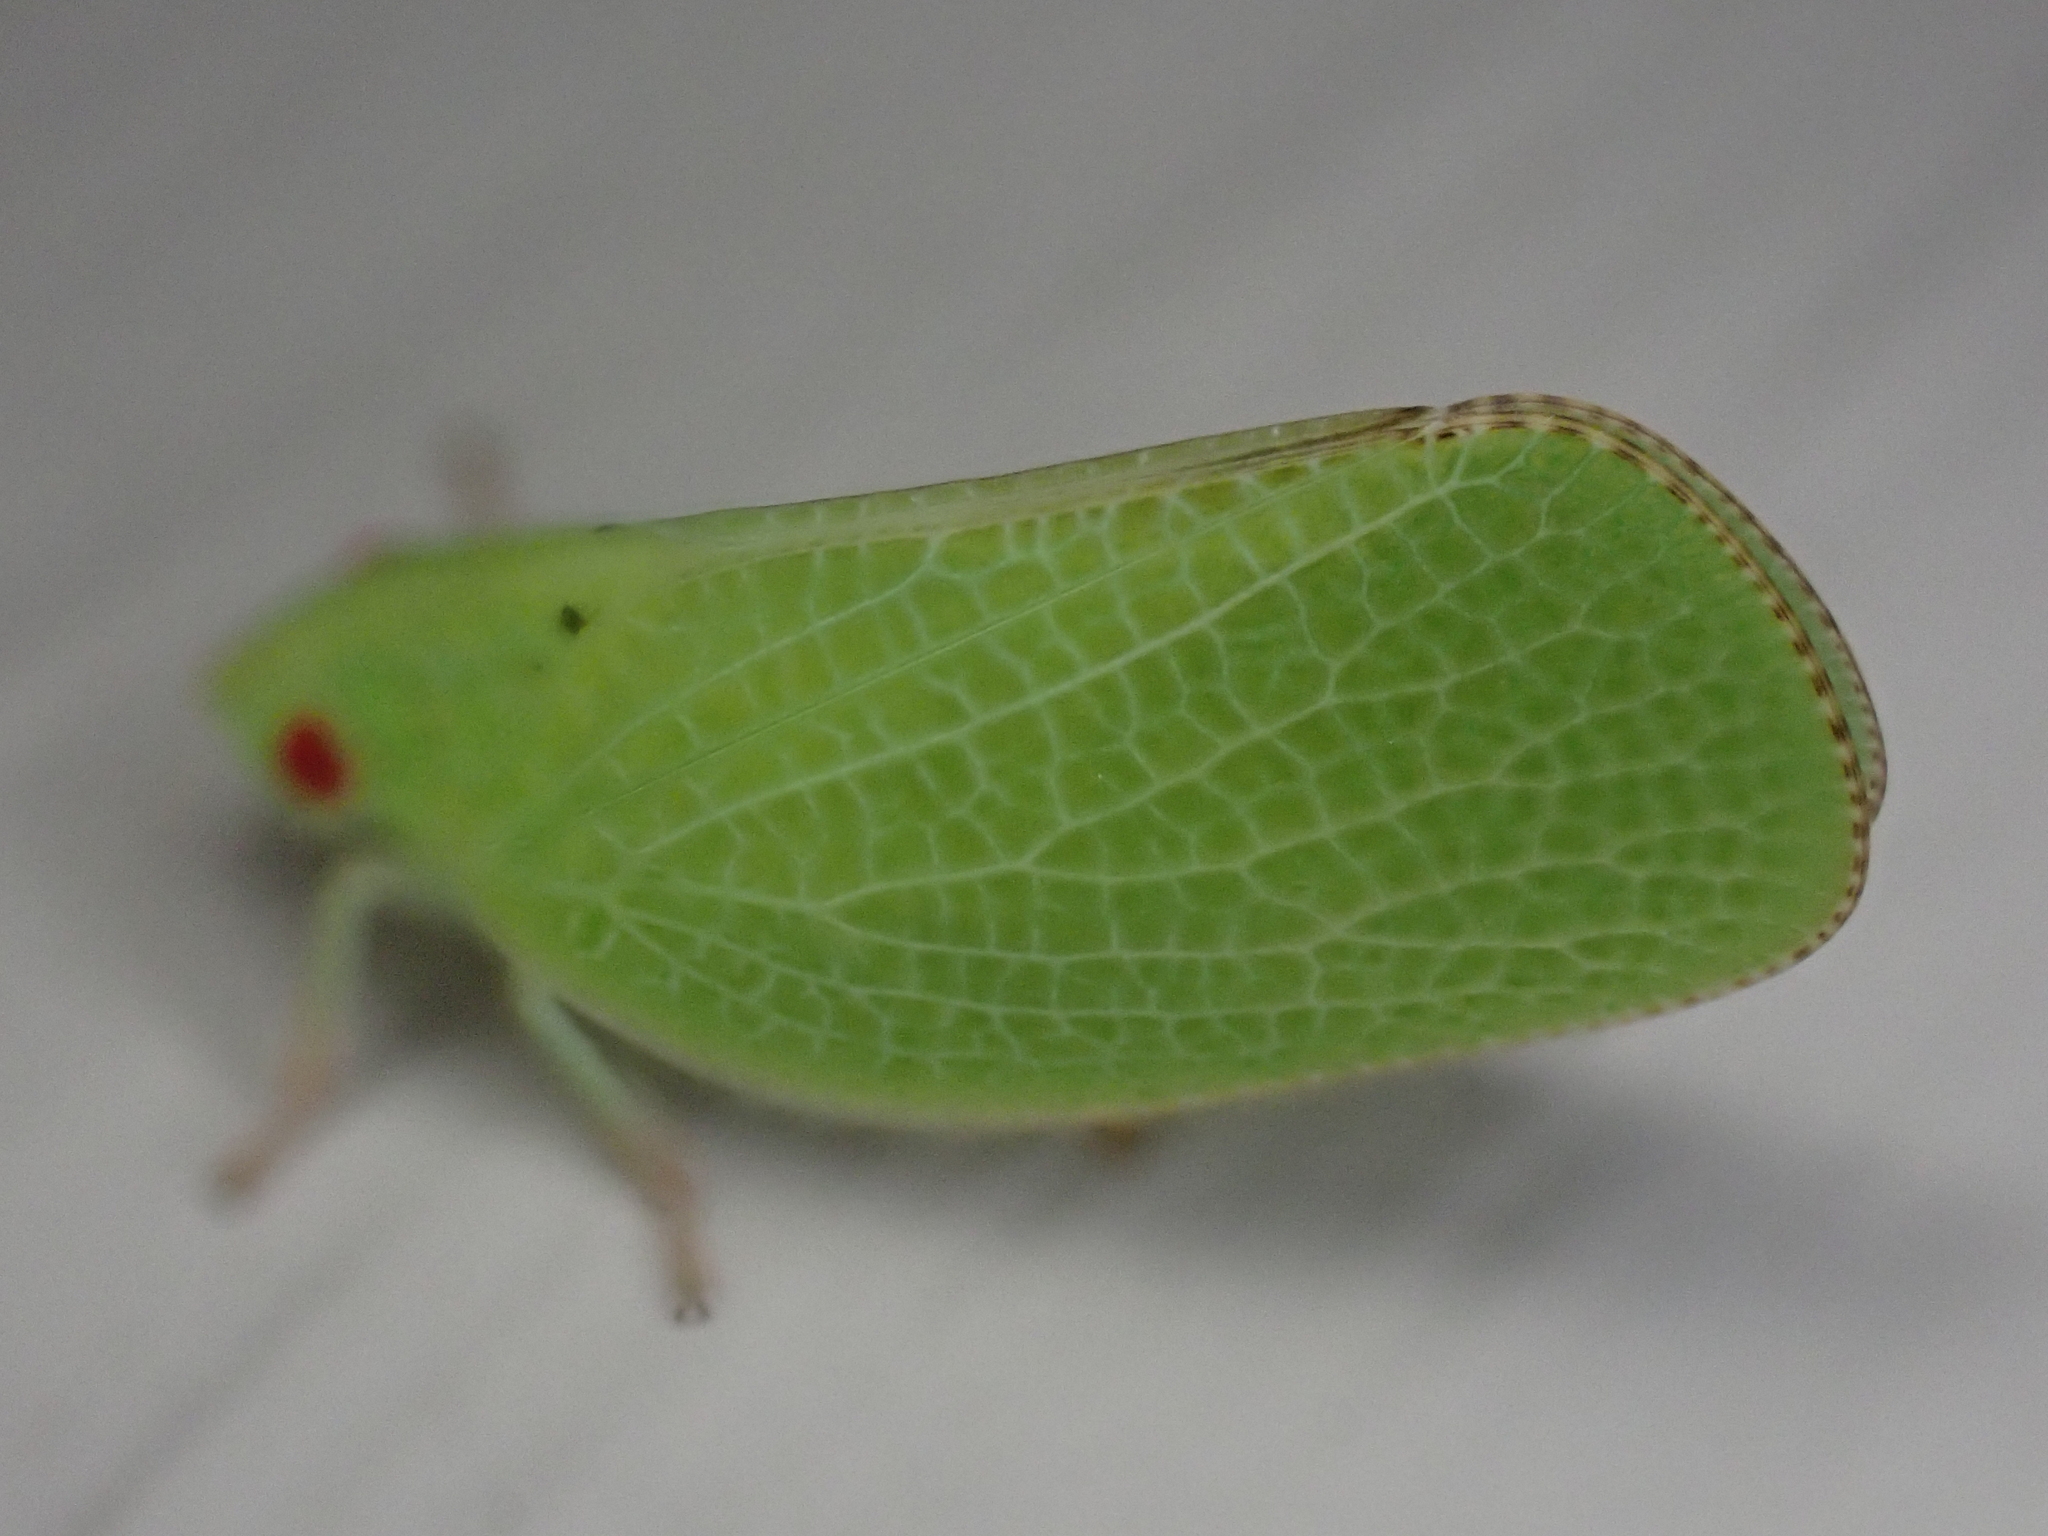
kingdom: Animalia
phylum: Arthropoda
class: Insecta
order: Hemiptera
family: Acanaloniidae
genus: Acanalonia
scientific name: Acanalonia conica
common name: Green cone-headed planthopper
